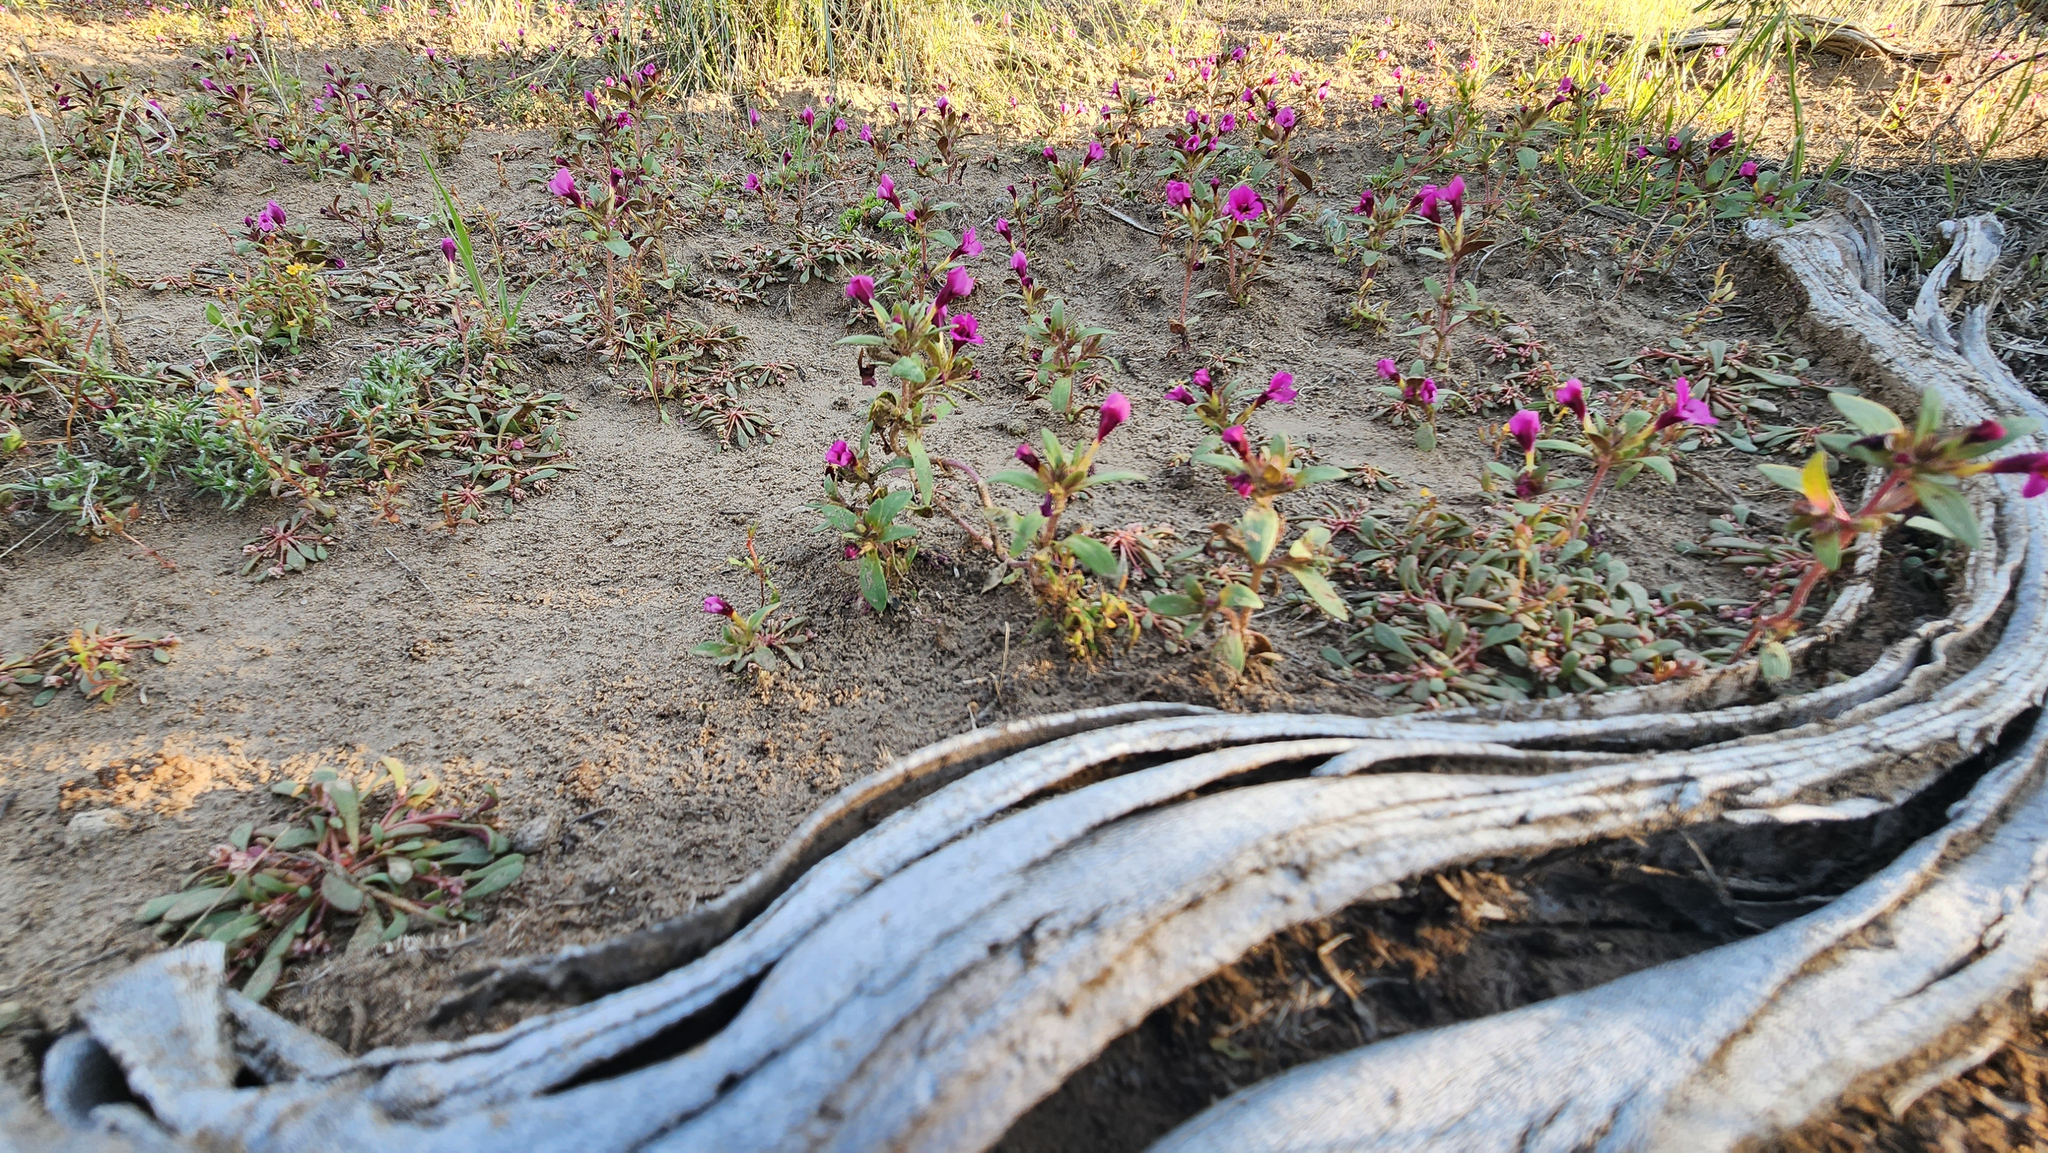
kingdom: Plantae
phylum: Tracheophyta
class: Magnoliopsida
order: Lamiales
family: Phrymaceae
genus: Diplacus
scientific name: Diplacus nanus
